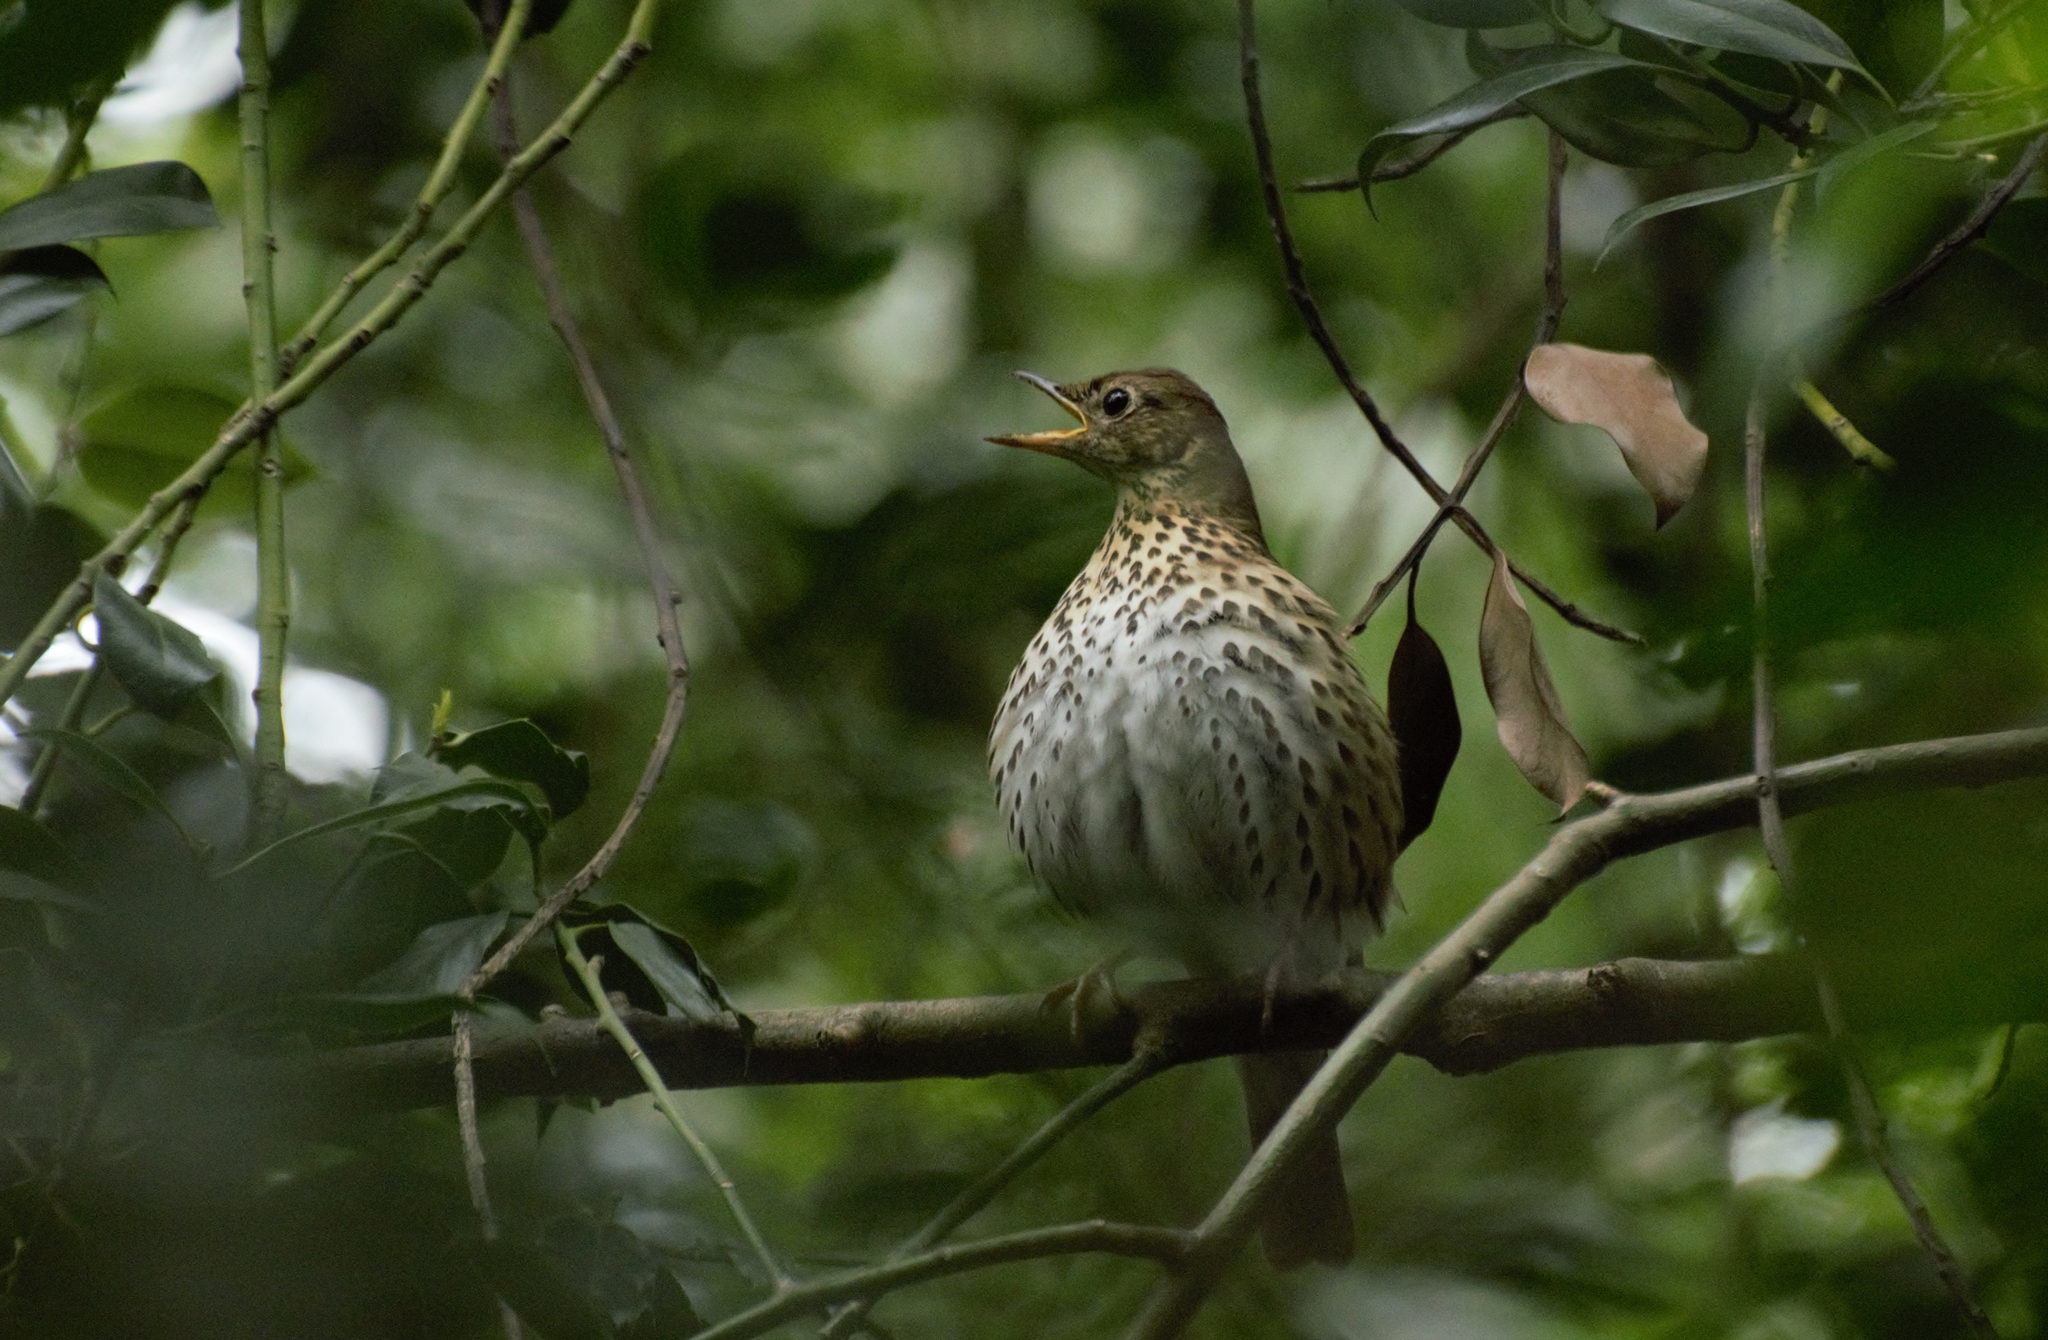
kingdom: Animalia
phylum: Chordata
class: Aves
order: Passeriformes
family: Turdidae
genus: Turdus
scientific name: Turdus philomelos
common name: Song thrush
